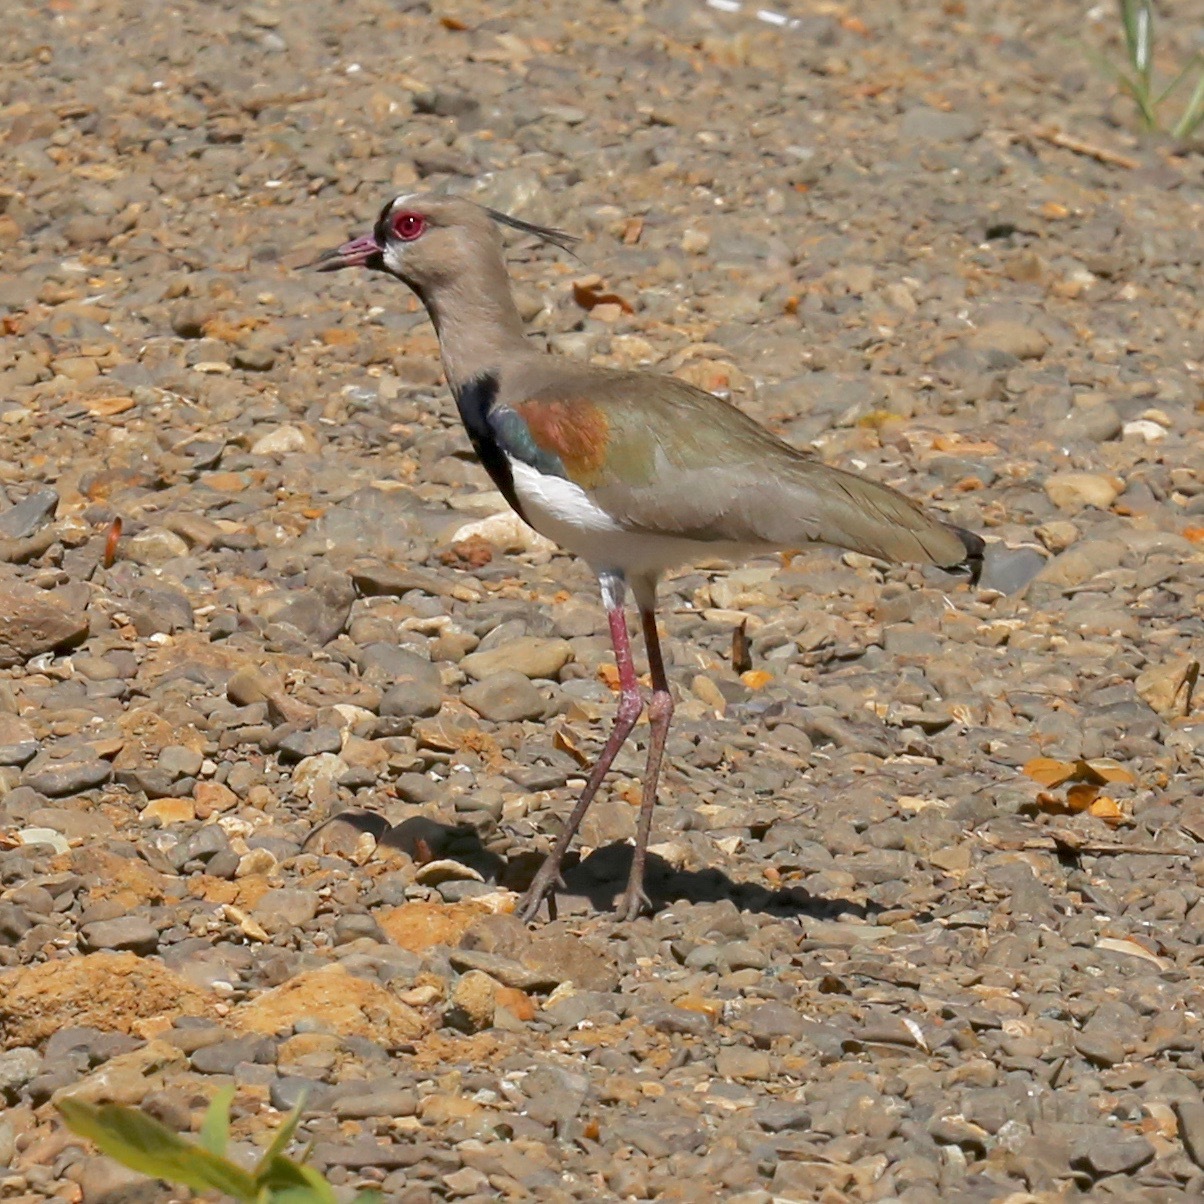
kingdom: Animalia
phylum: Chordata
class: Aves
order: Charadriiformes
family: Charadriidae
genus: Vanellus
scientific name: Vanellus chilensis
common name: Southern lapwing
